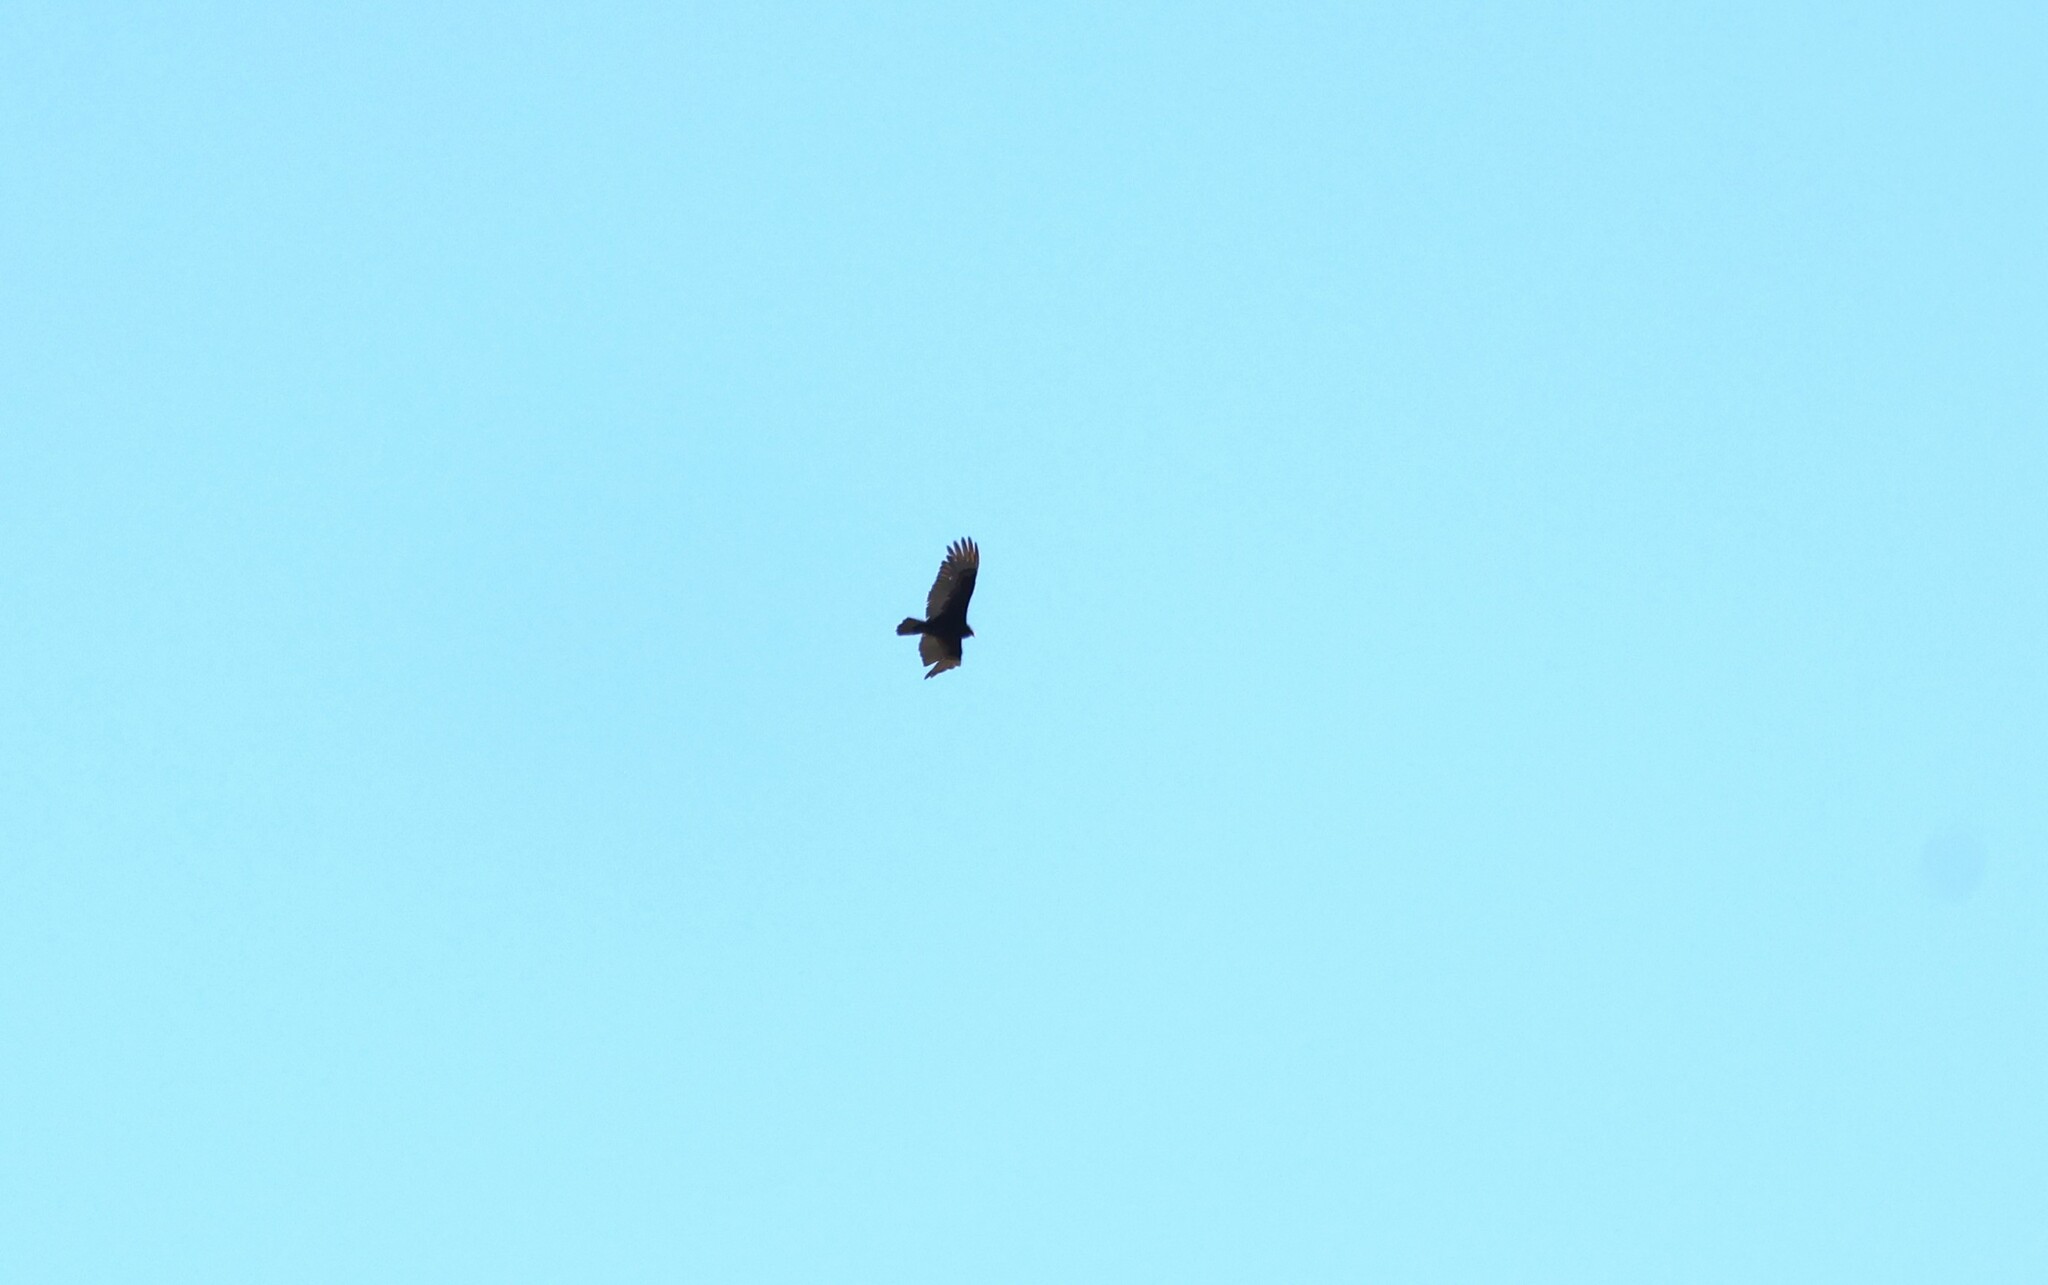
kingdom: Animalia
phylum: Chordata
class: Aves
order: Accipitriformes
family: Cathartidae
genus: Cathartes
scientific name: Cathartes aura
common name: Turkey vulture
